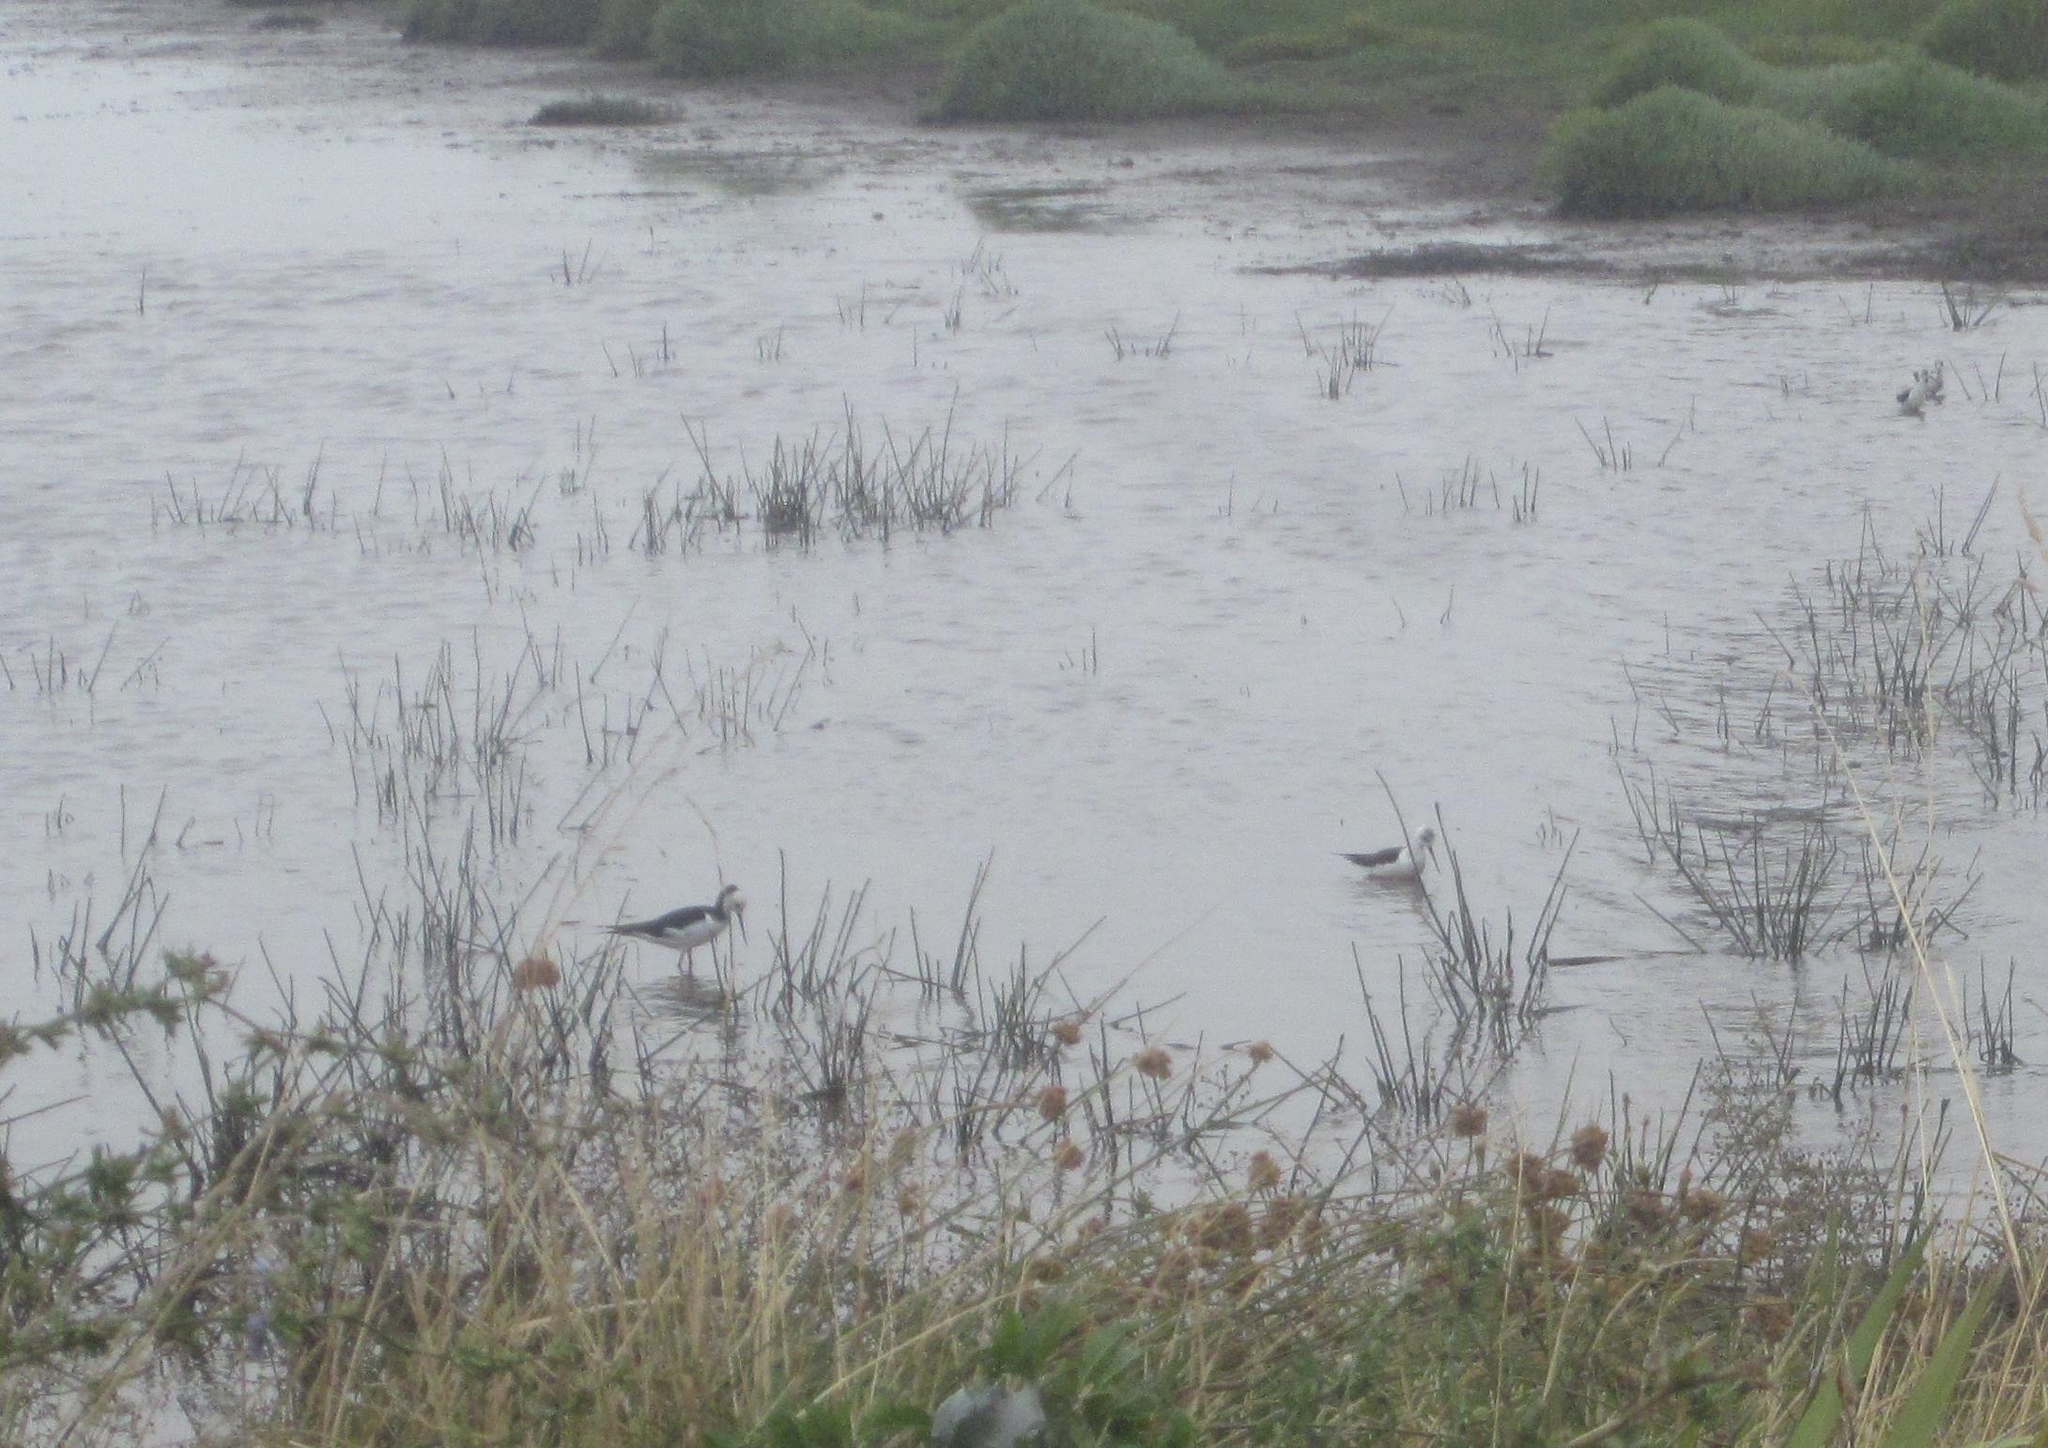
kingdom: Animalia
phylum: Chordata
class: Aves
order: Charadriiformes
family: Recurvirostridae
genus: Himantopus
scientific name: Himantopus leucocephalus
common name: White-headed stilt
